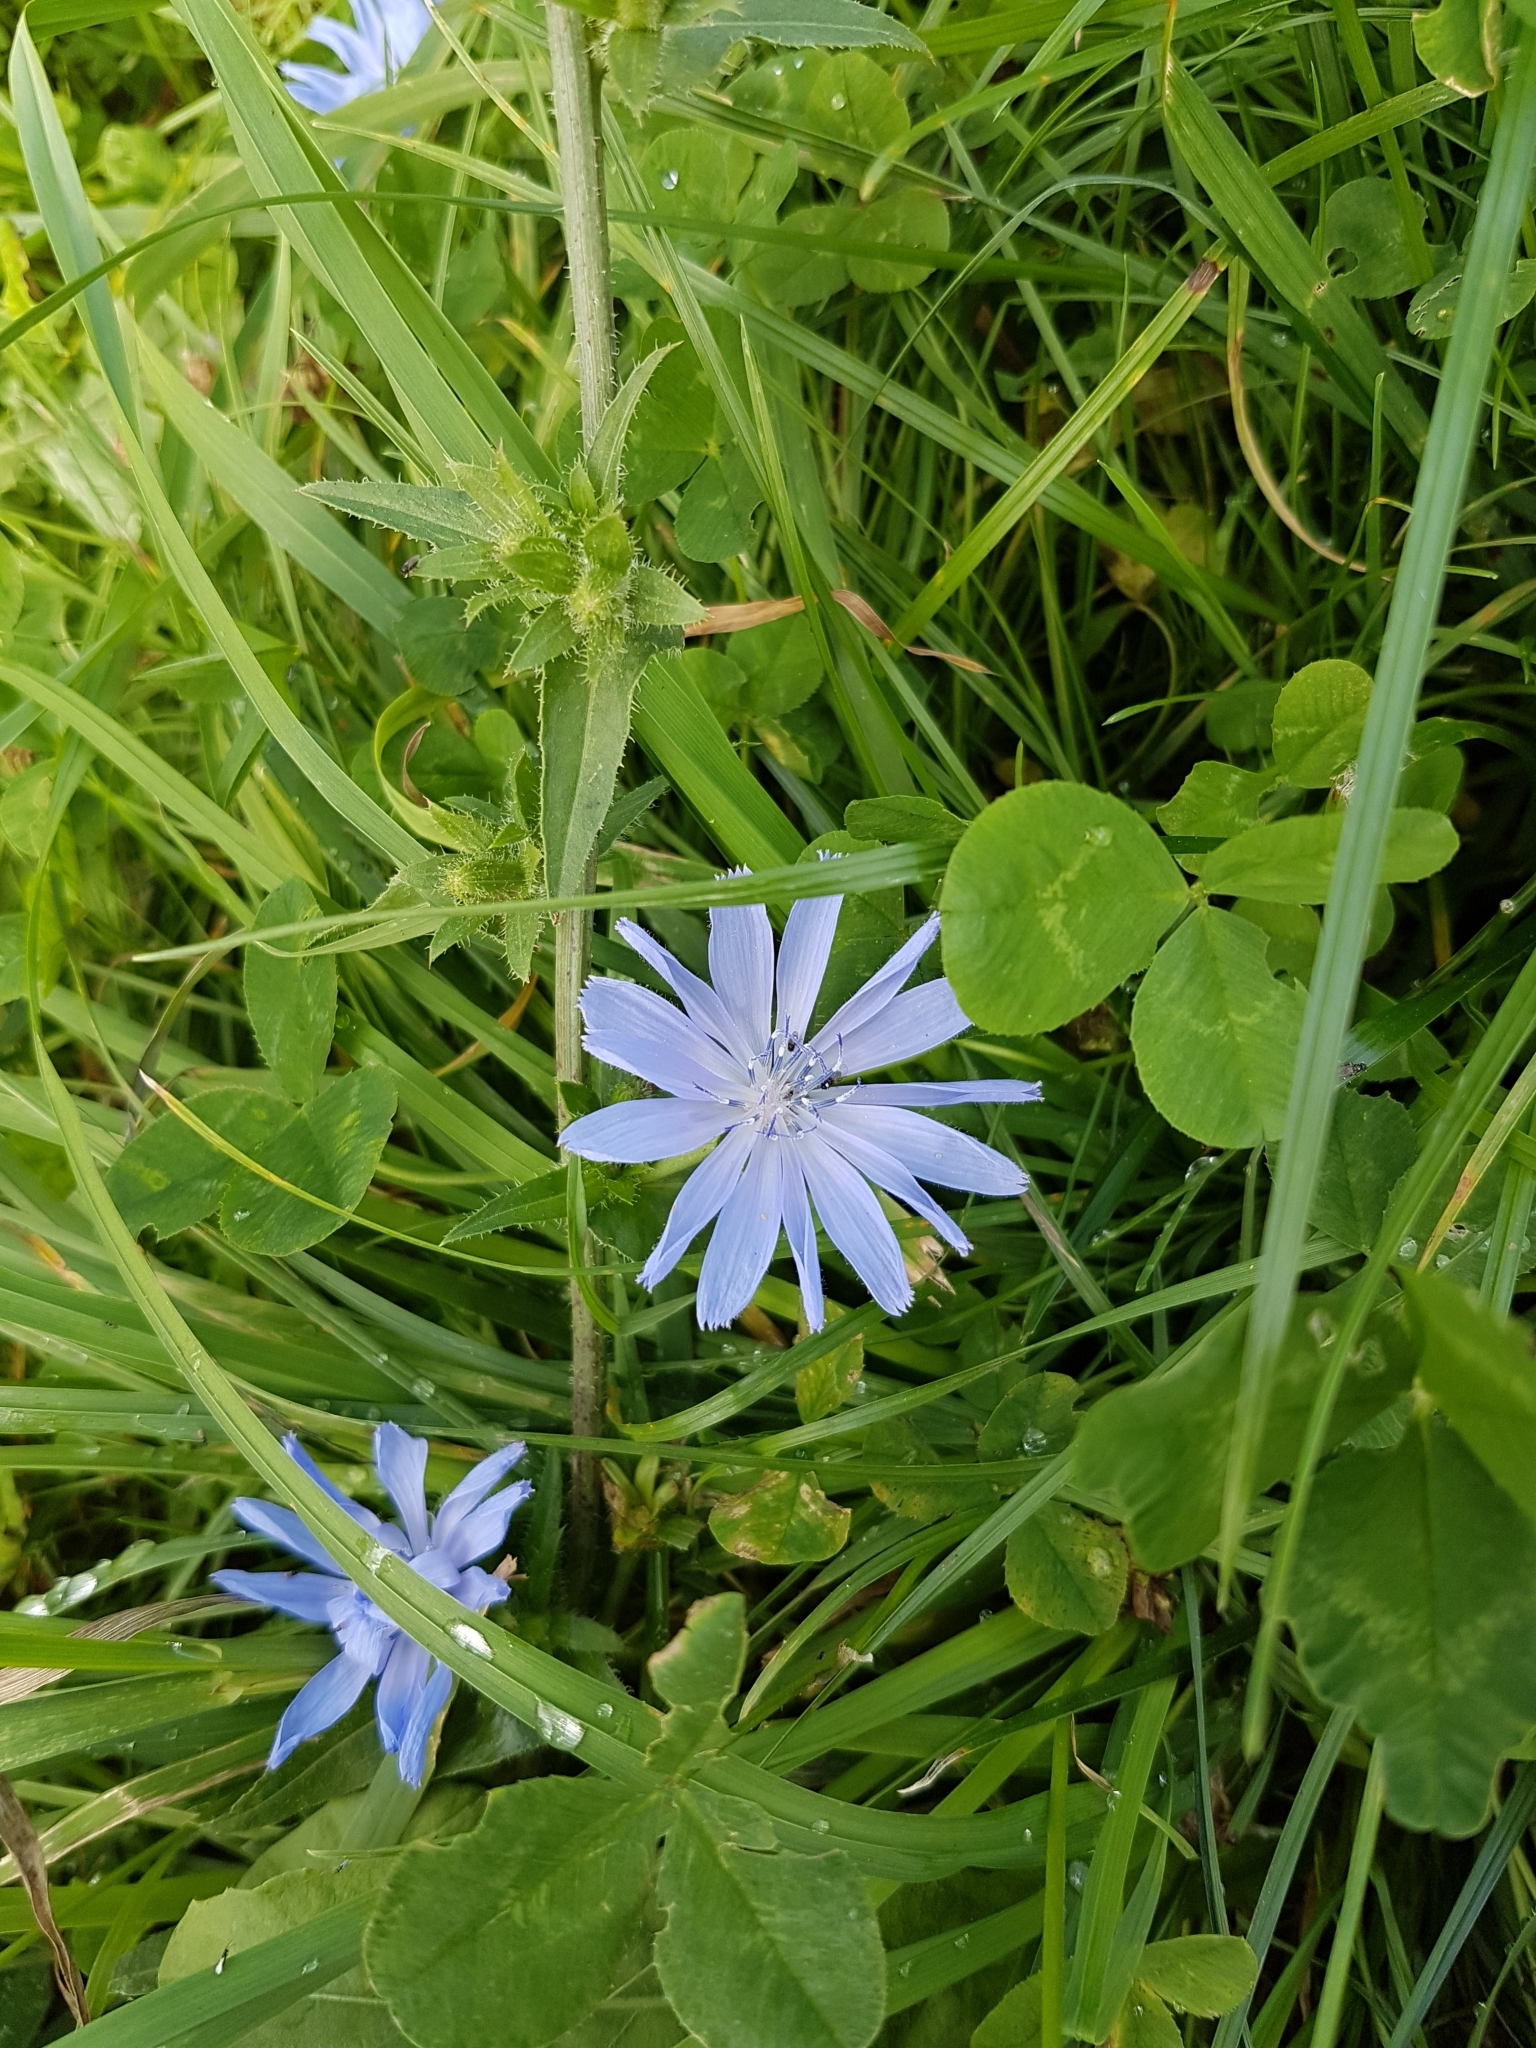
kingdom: Plantae
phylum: Tracheophyta
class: Magnoliopsida
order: Asterales
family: Asteraceae
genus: Cichorium
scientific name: Cichorium intybus
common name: Chicory
